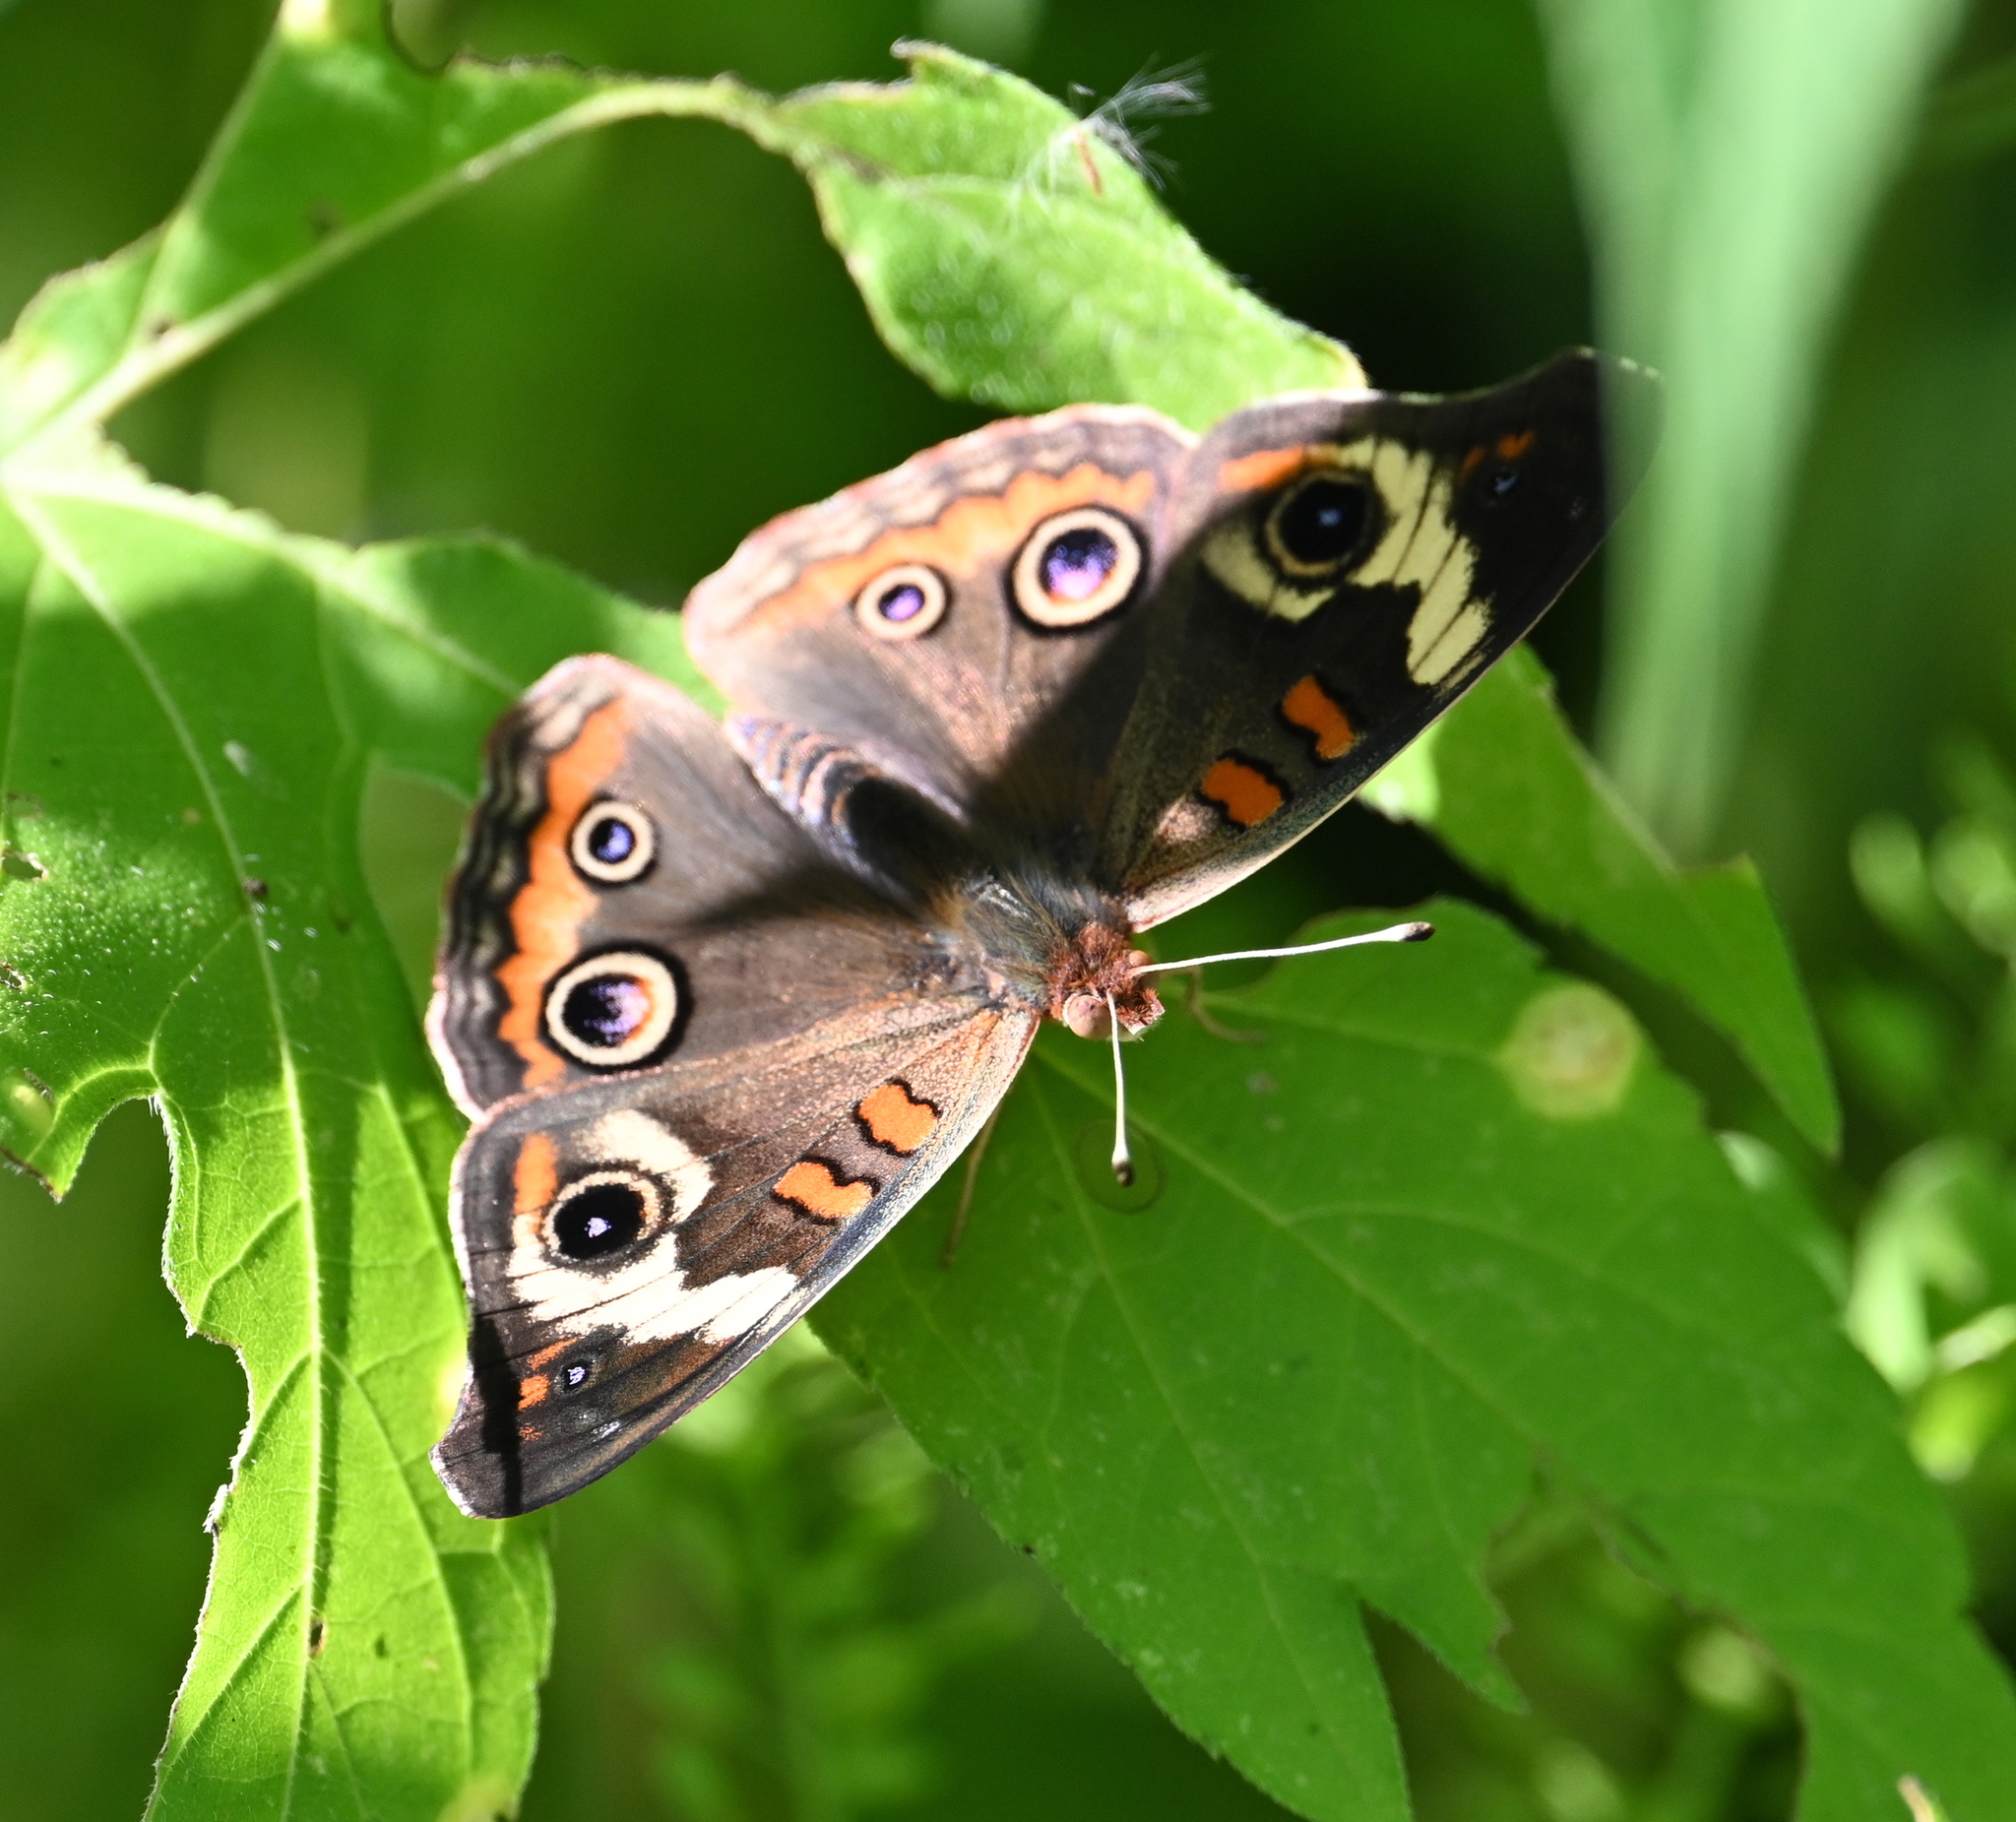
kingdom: Animalia
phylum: Arthropoda
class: Insecta
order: Lepidoptera
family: Nymphalidae
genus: Junonia
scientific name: Junonia coenia
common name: Common buckeye
